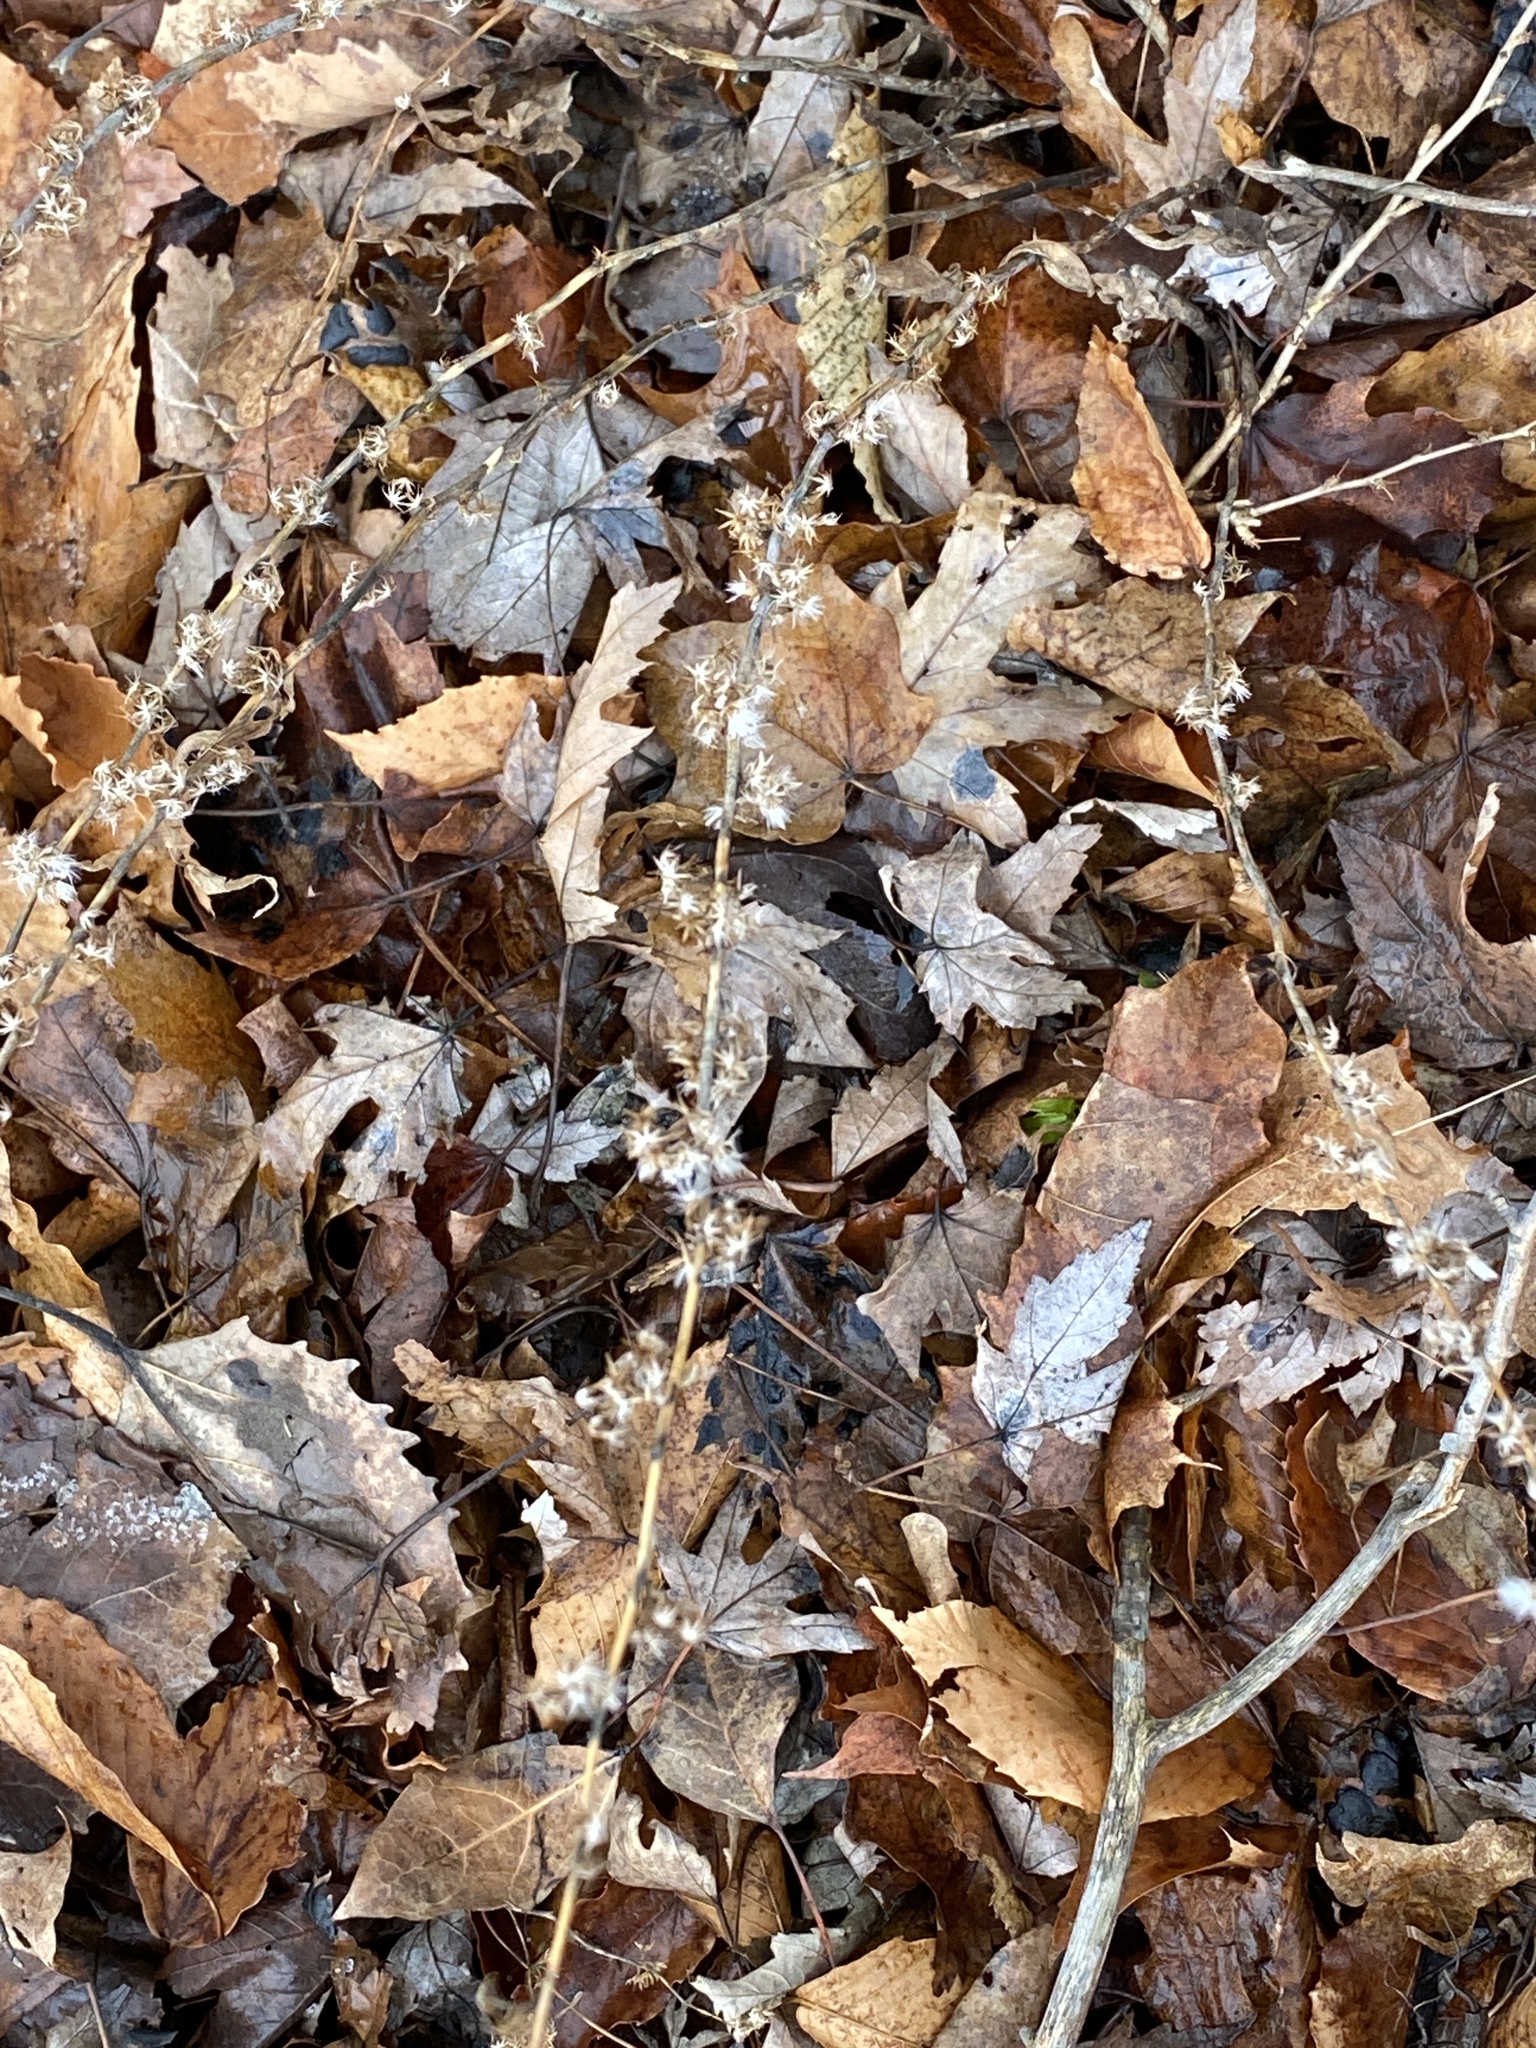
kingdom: Plantae
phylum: Tracheophyta
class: Magnoliopsida
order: Asterales
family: Asteraceae
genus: Solidago
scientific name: Solidago caesia
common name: Woodland goldenrod
